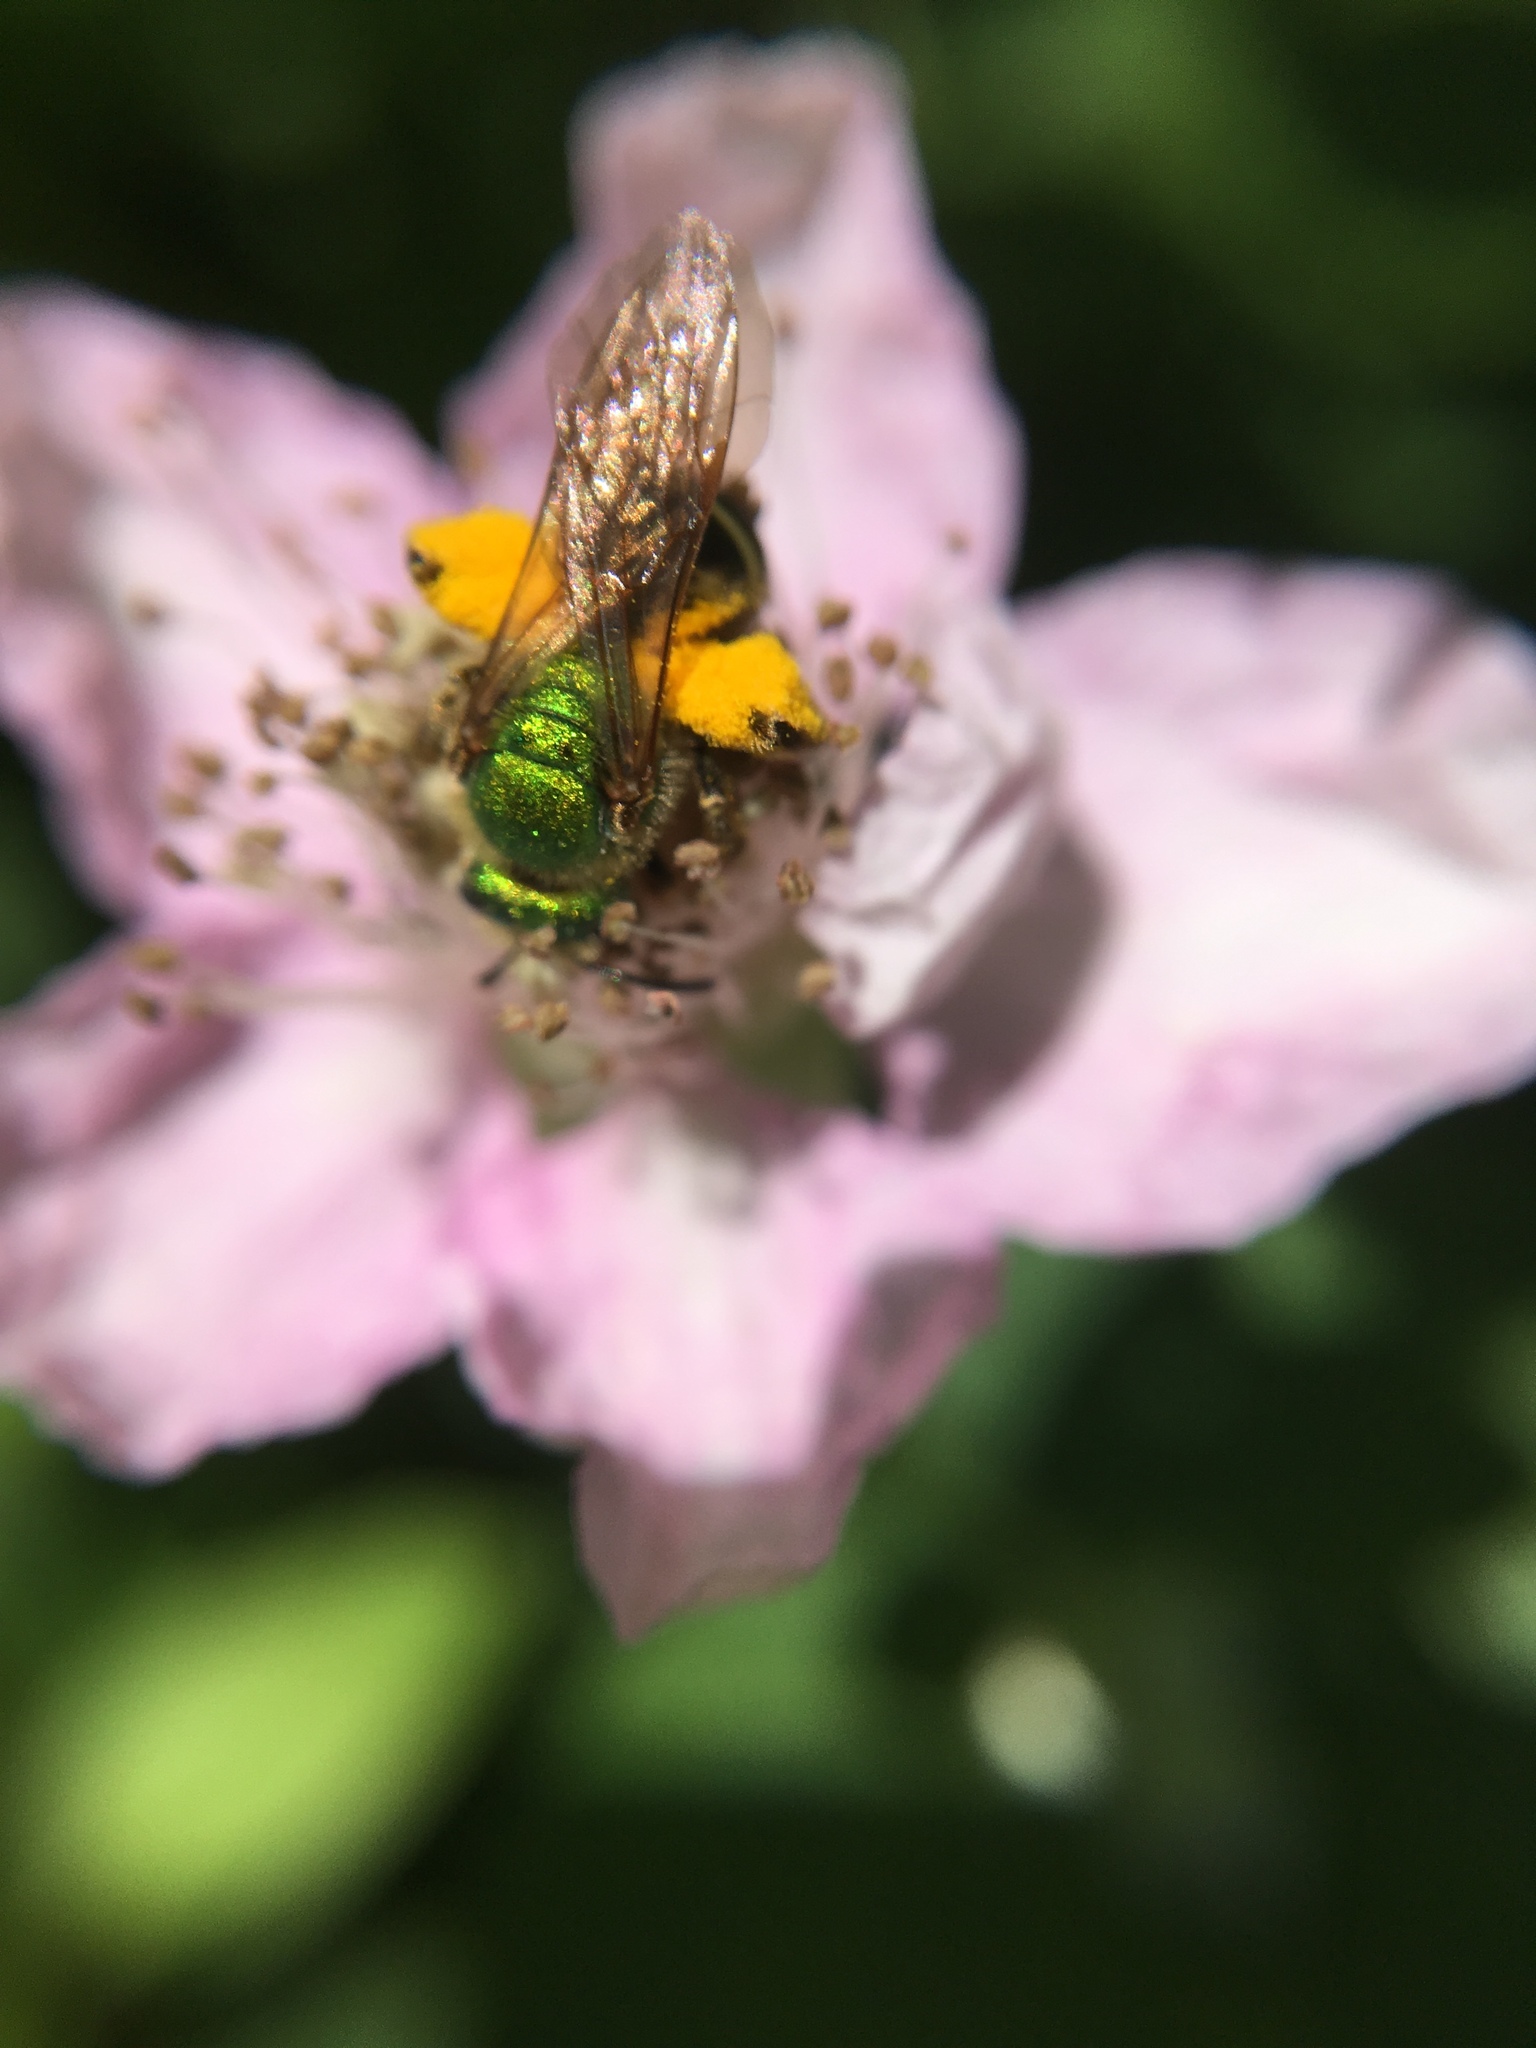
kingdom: Animalia
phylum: Arthropoda
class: Insecta
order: Hymenoptera
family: Halictidae
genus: Agapostemon
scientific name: Agapostemon virescens
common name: Bicolored striped sweat bee
